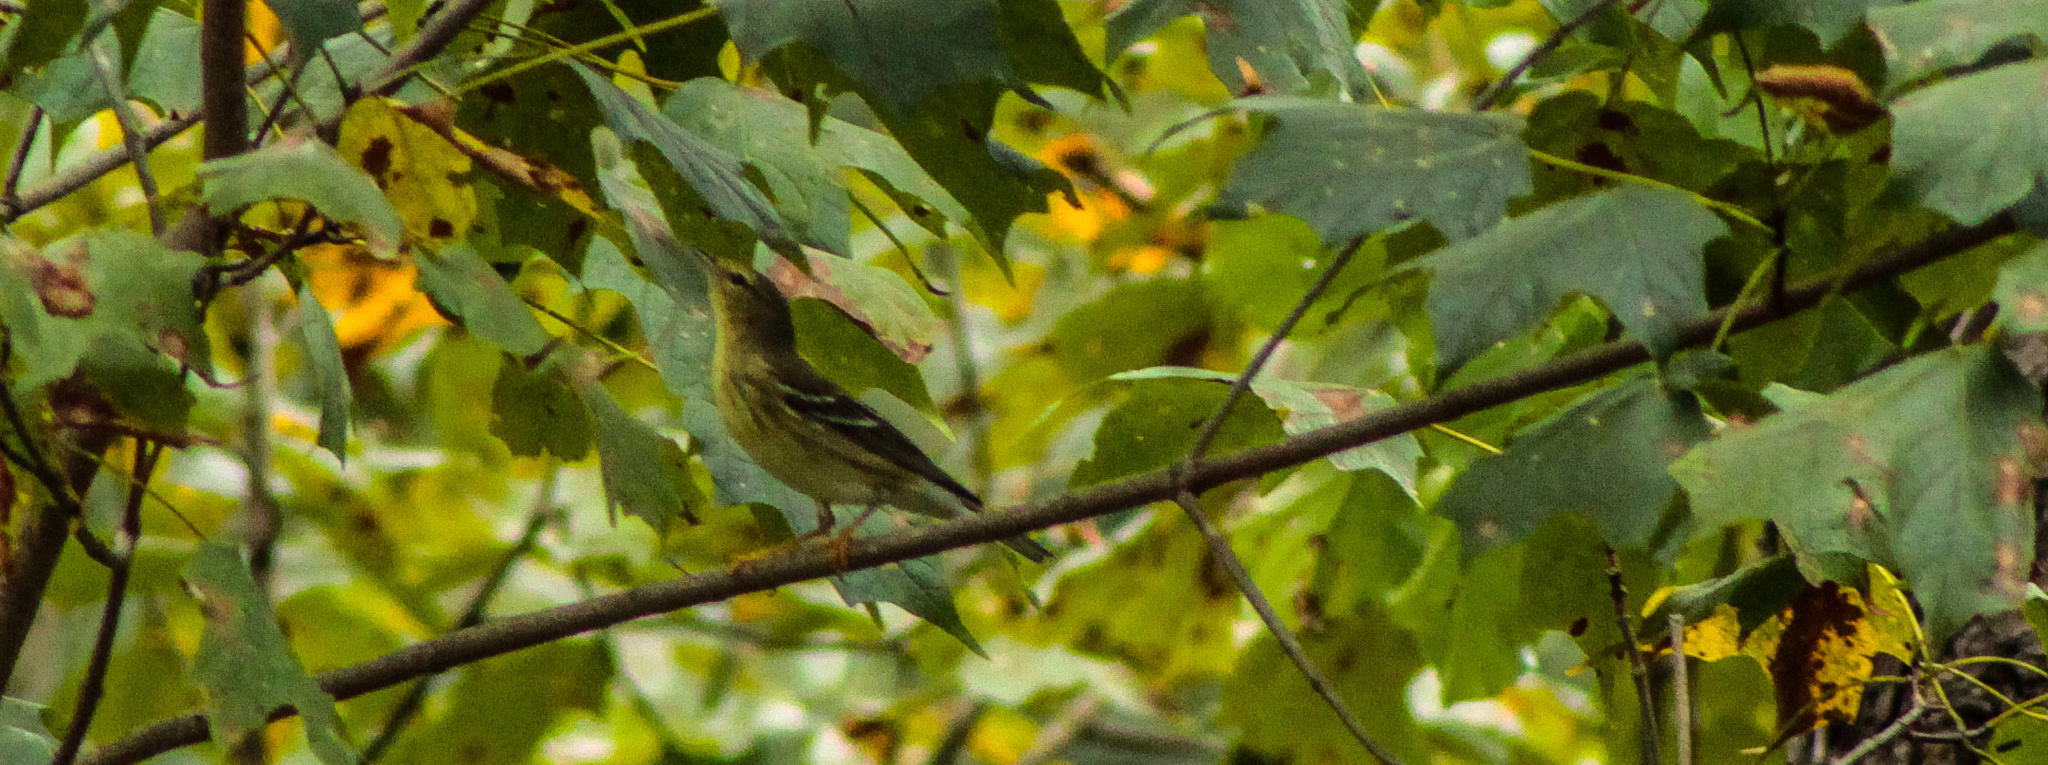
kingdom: Animalia
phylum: Chordata
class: Aves
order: Passeriformes
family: Parulidae
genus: Setophaga
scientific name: Setophaga striata
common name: Blackpoll warbler
